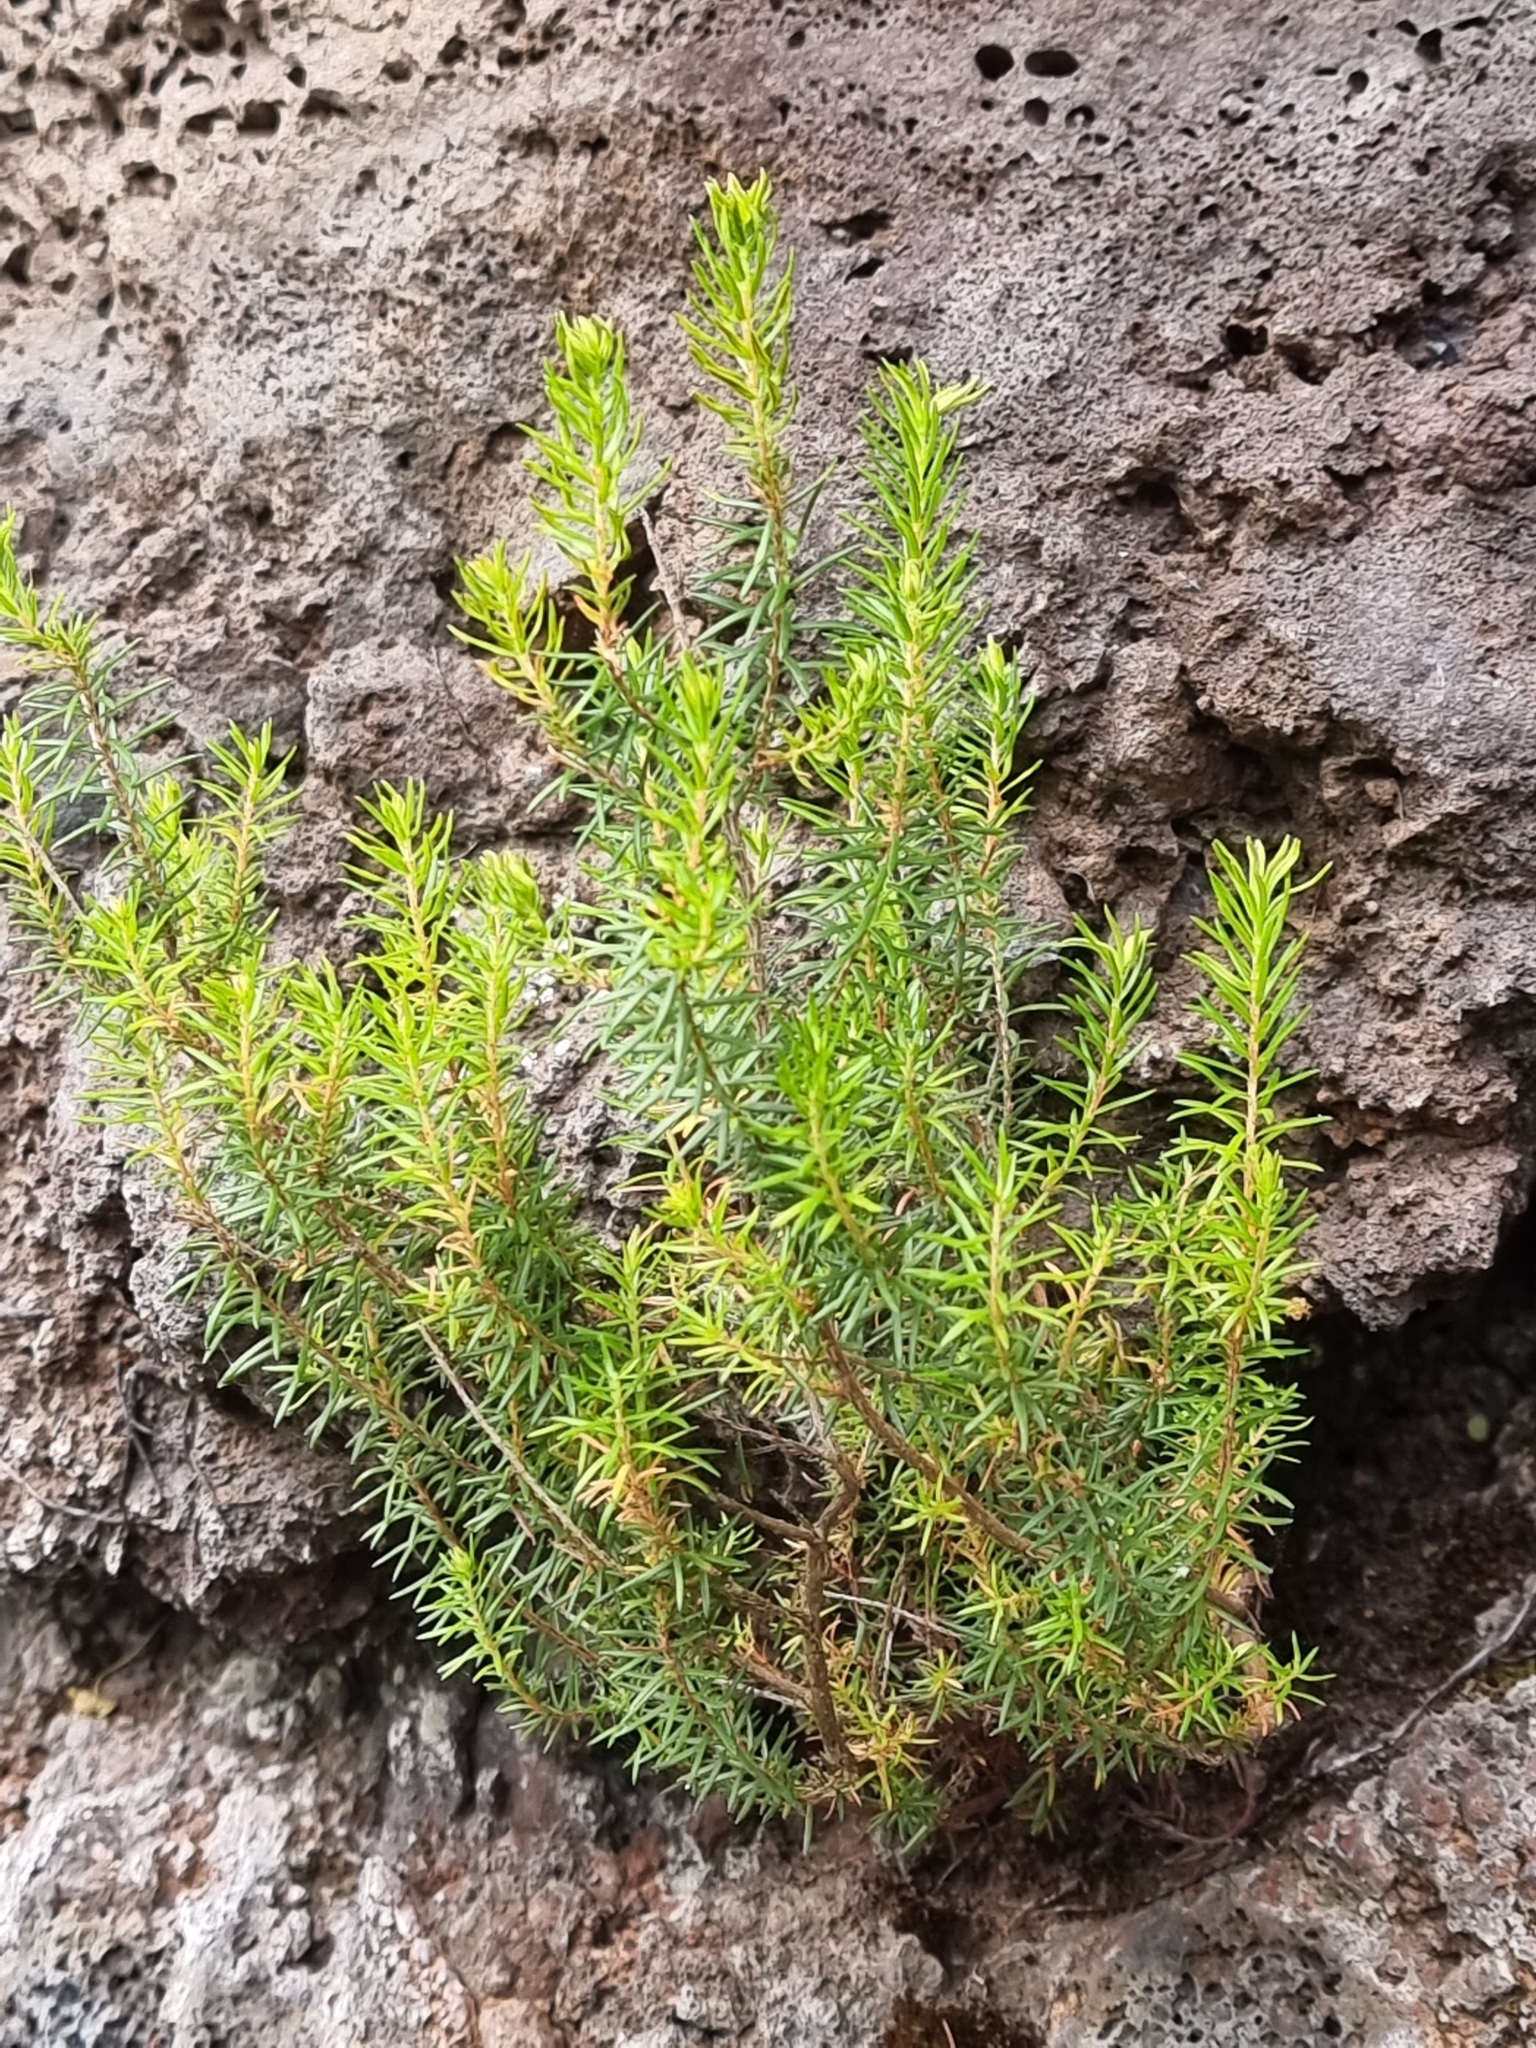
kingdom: Plantae
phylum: Tracheophyta
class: Magnoliopsida
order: Ericales
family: Ericaceae
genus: Erica
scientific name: Erica platycodon
